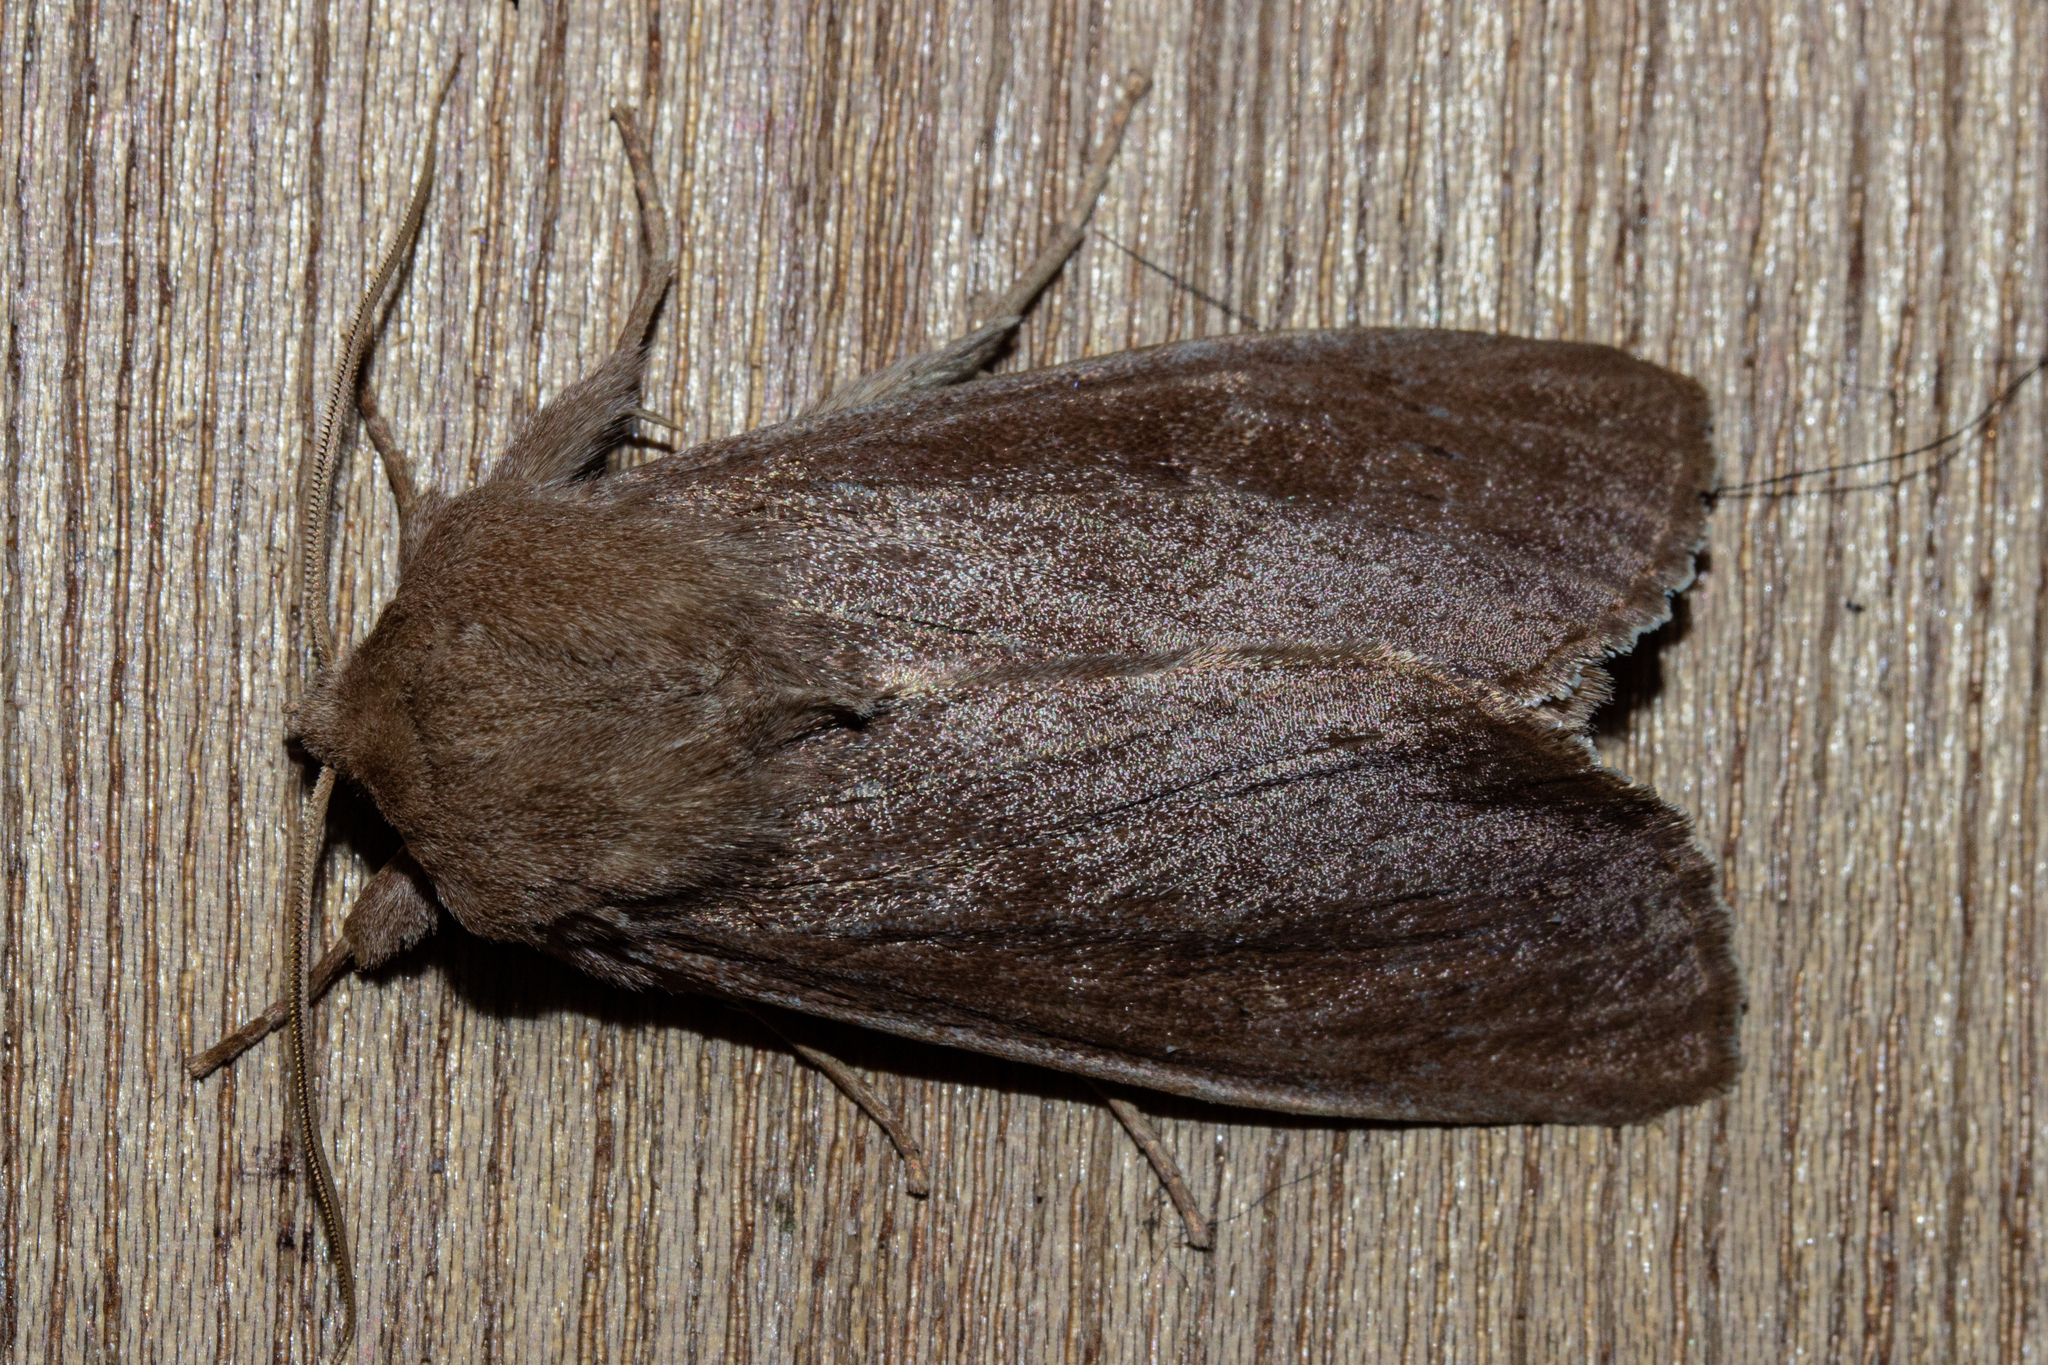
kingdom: Animalia
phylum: Arthropoda
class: Insecta
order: Lepidoptera
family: Noctuidae
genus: Ichneutica
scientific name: Ichneutica nullifera
